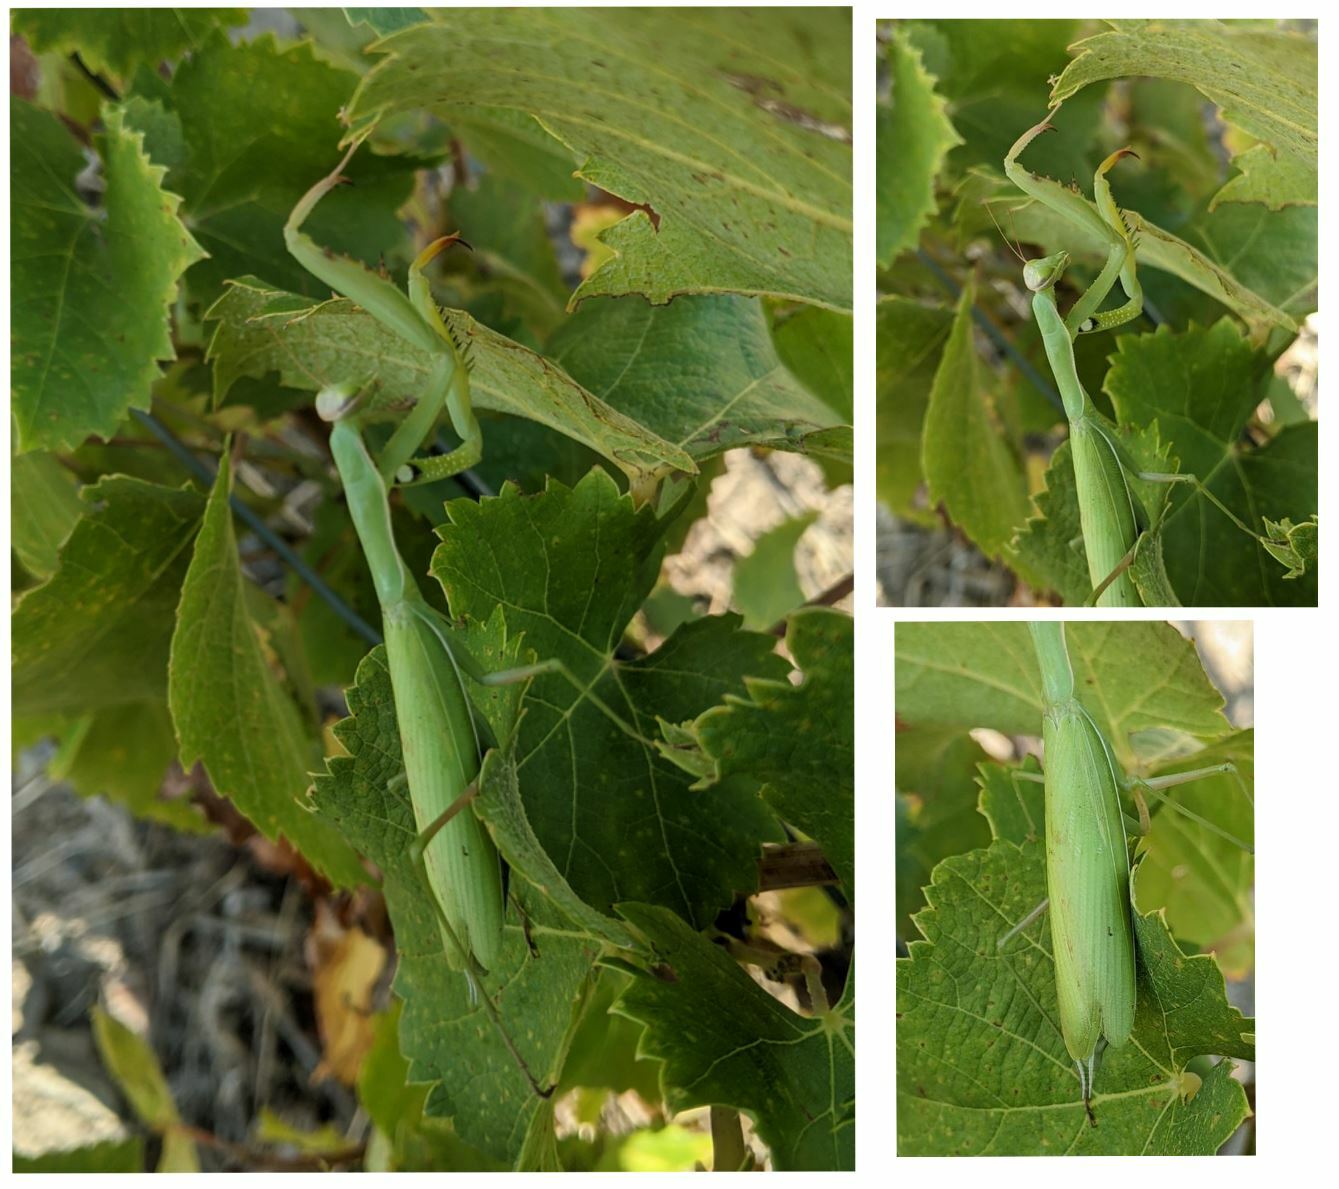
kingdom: Animalia
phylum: Arthropoda
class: Insecta
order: Mantodea
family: Mantidae
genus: Mantis
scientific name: Mantis religiosa
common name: Praying mantis
